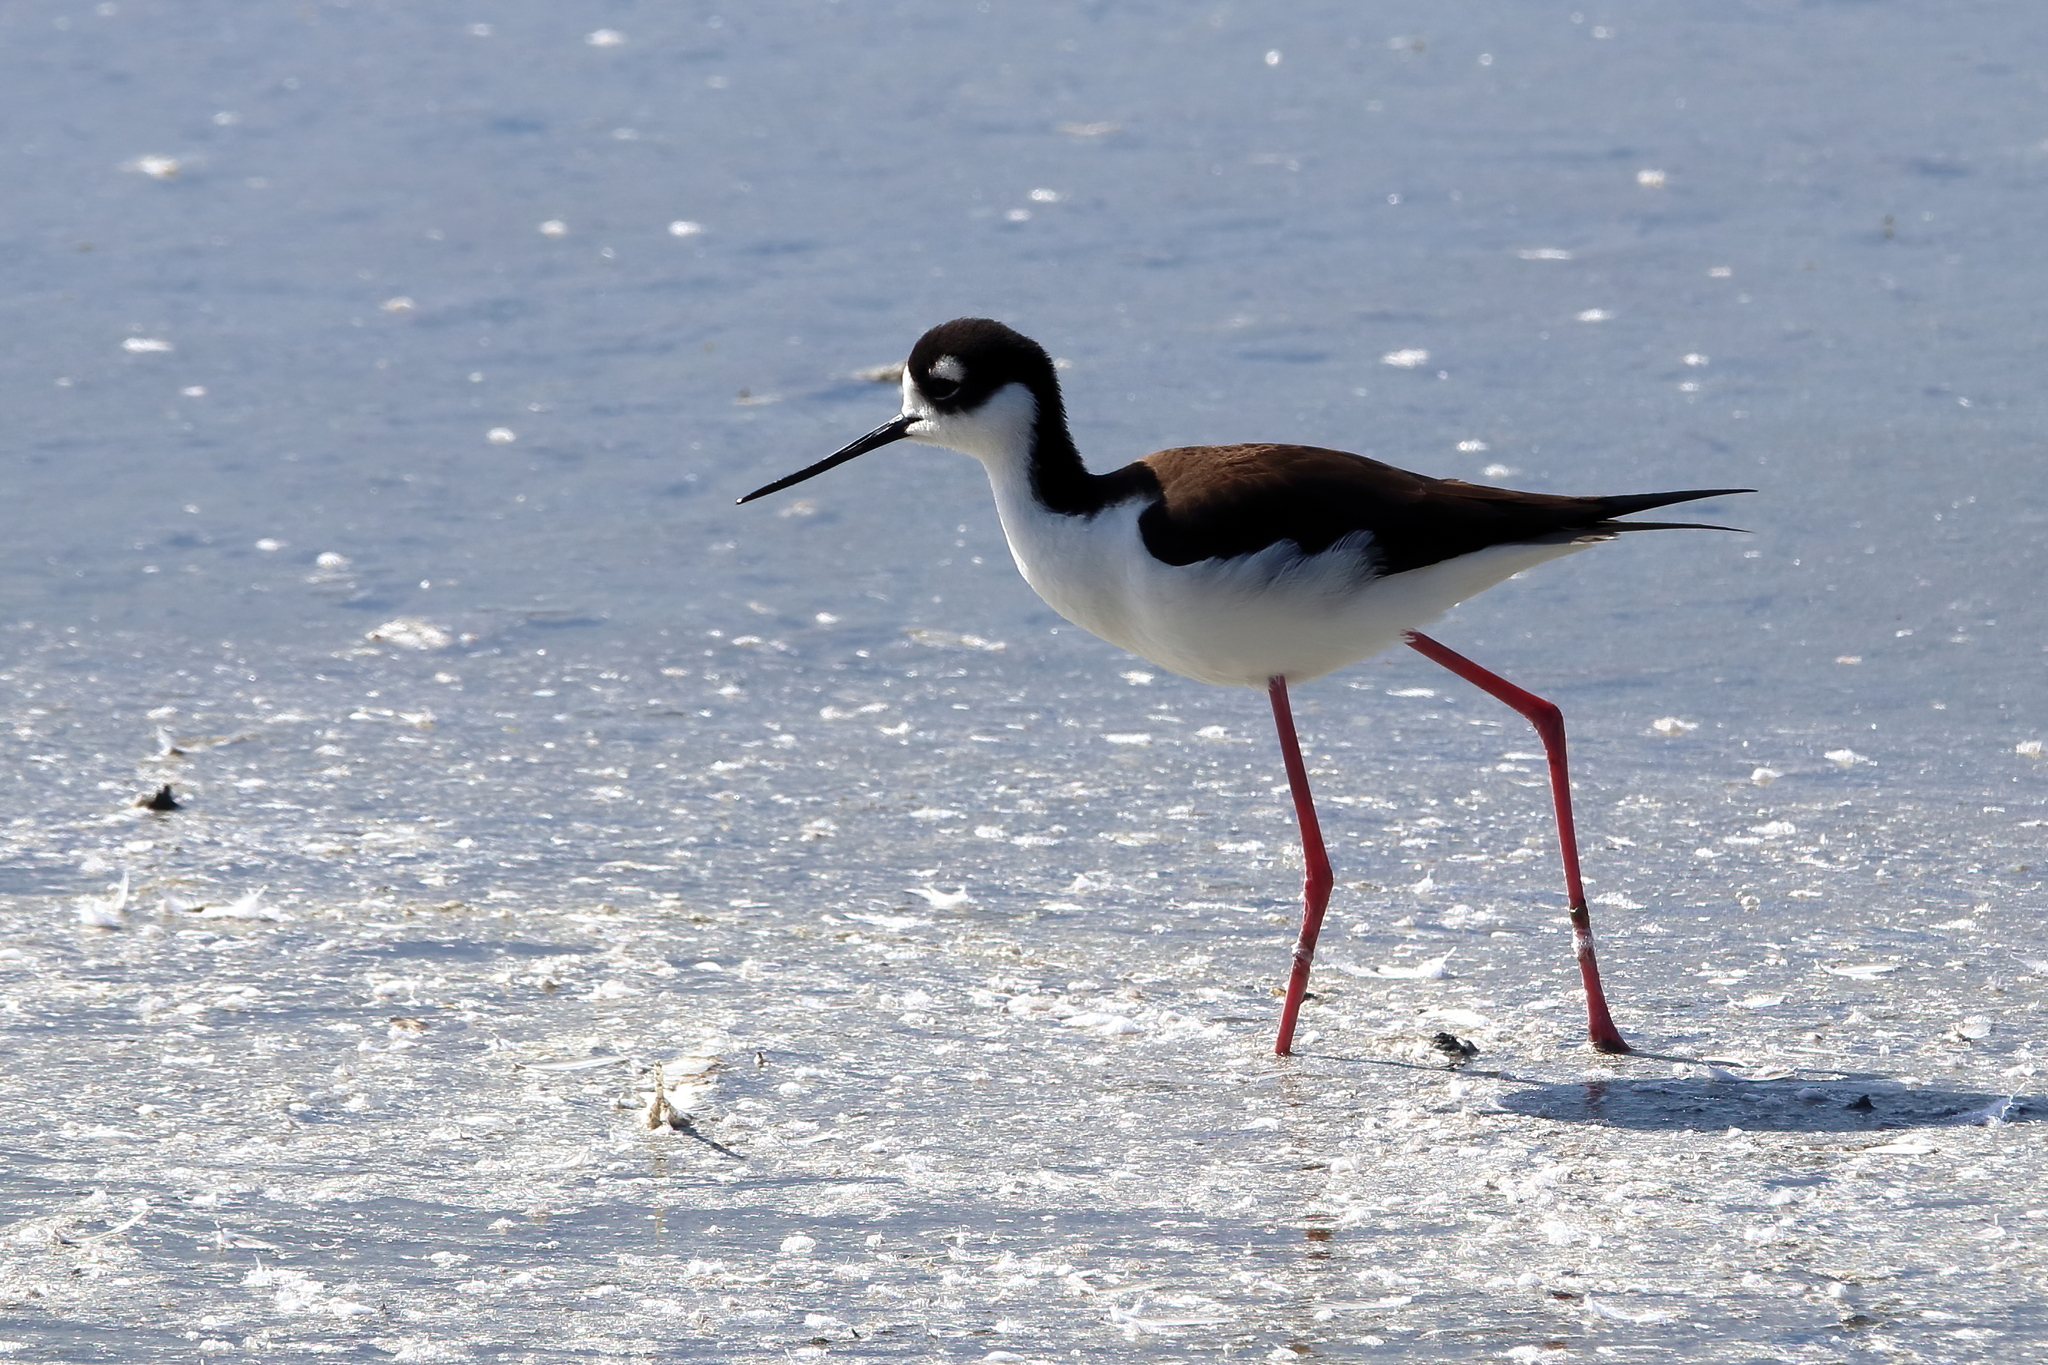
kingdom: Animalia
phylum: Chordata
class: Aves
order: Charadriiformes
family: Recurvirostridae
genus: Himantopus
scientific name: Himantopus mexicanus
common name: Black-necked stilt
